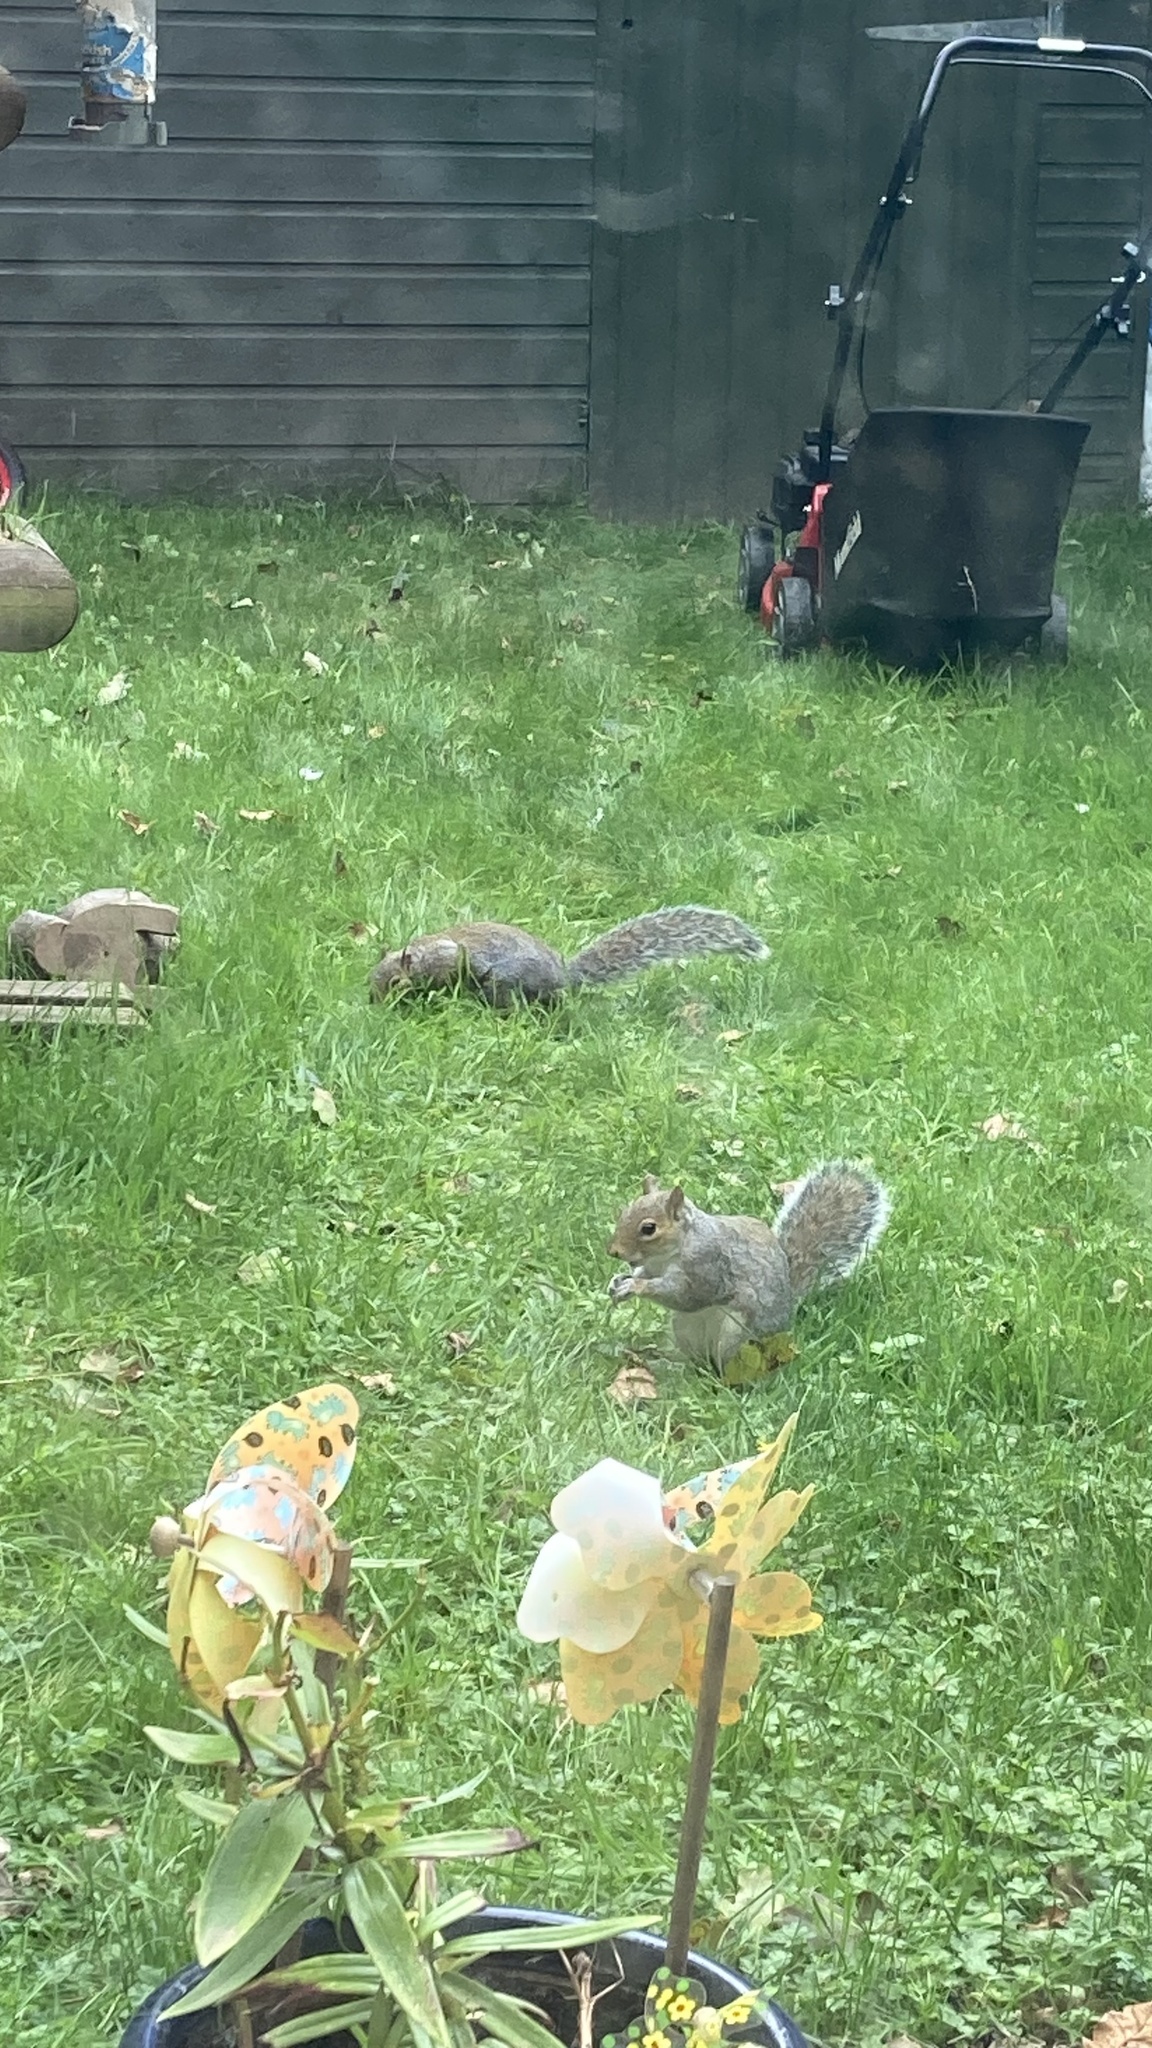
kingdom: Animalia
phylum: Chordata
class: Mammalia
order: Rodentia
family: Sciuridae
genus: Sciurus
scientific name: Sciurus carolinensis
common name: Eastern gray squirrel
